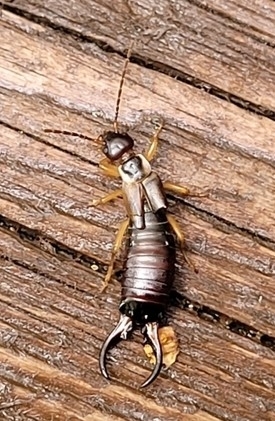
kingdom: Animalia
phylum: Arthropoda
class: Insecta
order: Dermaptera
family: Forficulidae
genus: Forficula
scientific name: Forficula auricularia
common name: European earwig
